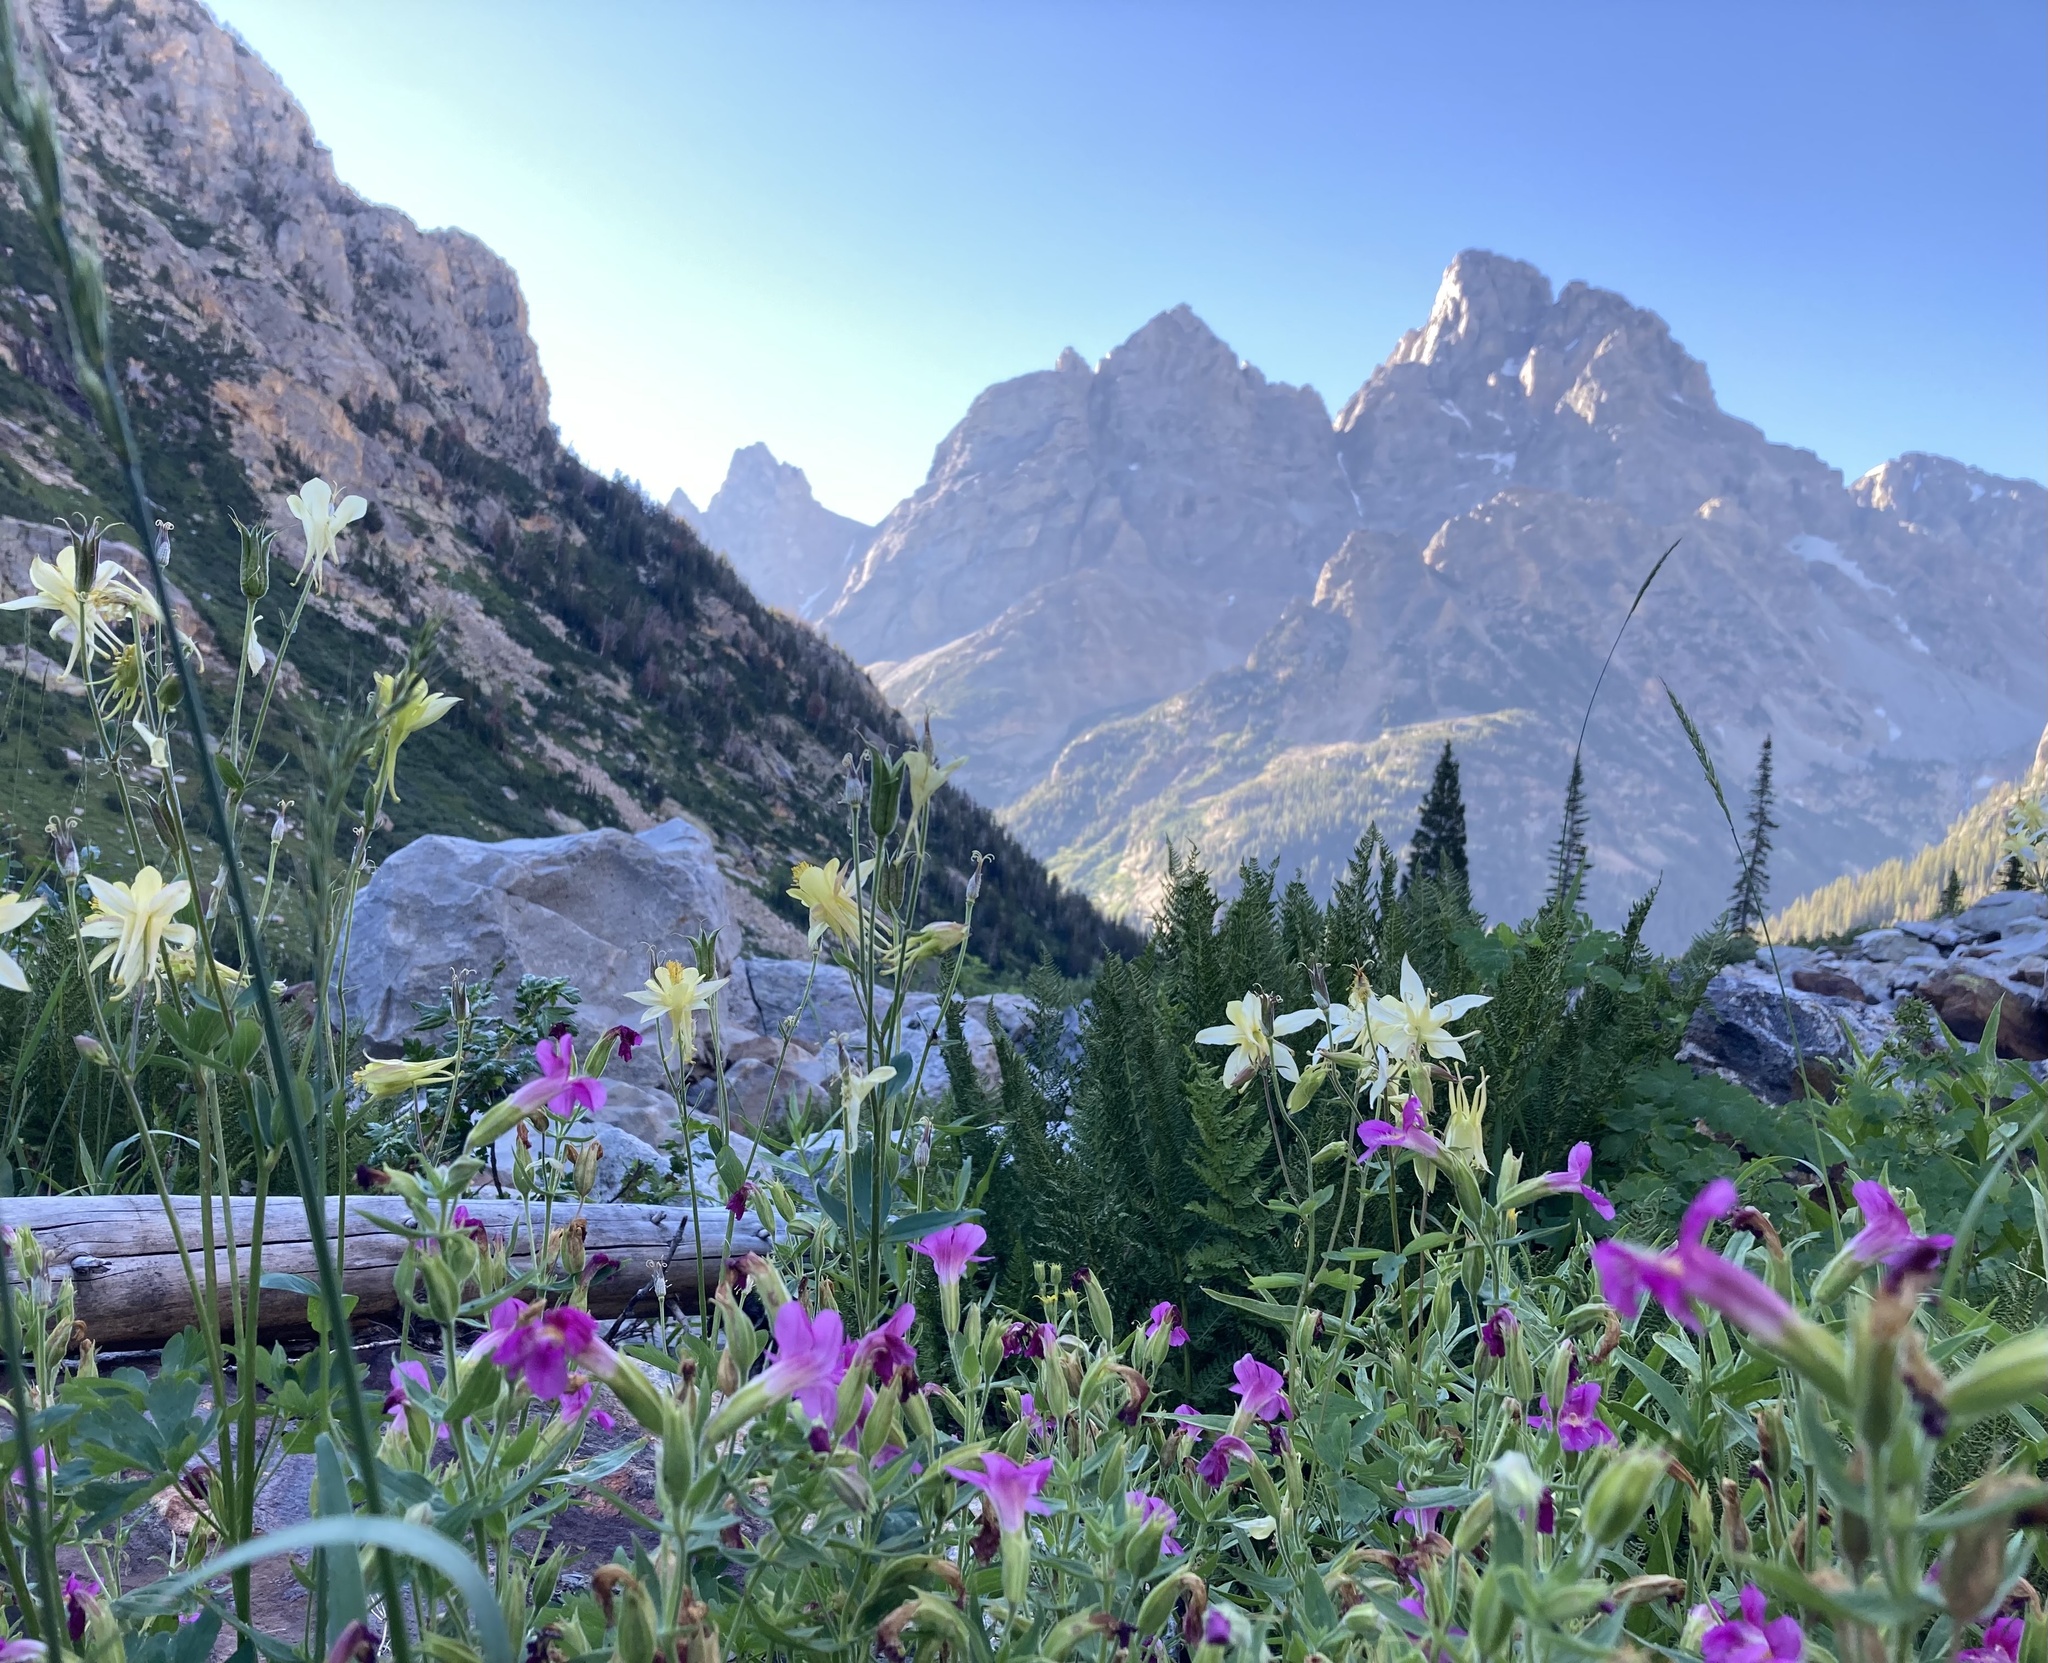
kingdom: Plantae
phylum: Tracheophyta
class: Magnoliopsida
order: Ranunculales
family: Ranunculaceae
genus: Aquilegia
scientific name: Aquilegia flavescens
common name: Yellow columbine
